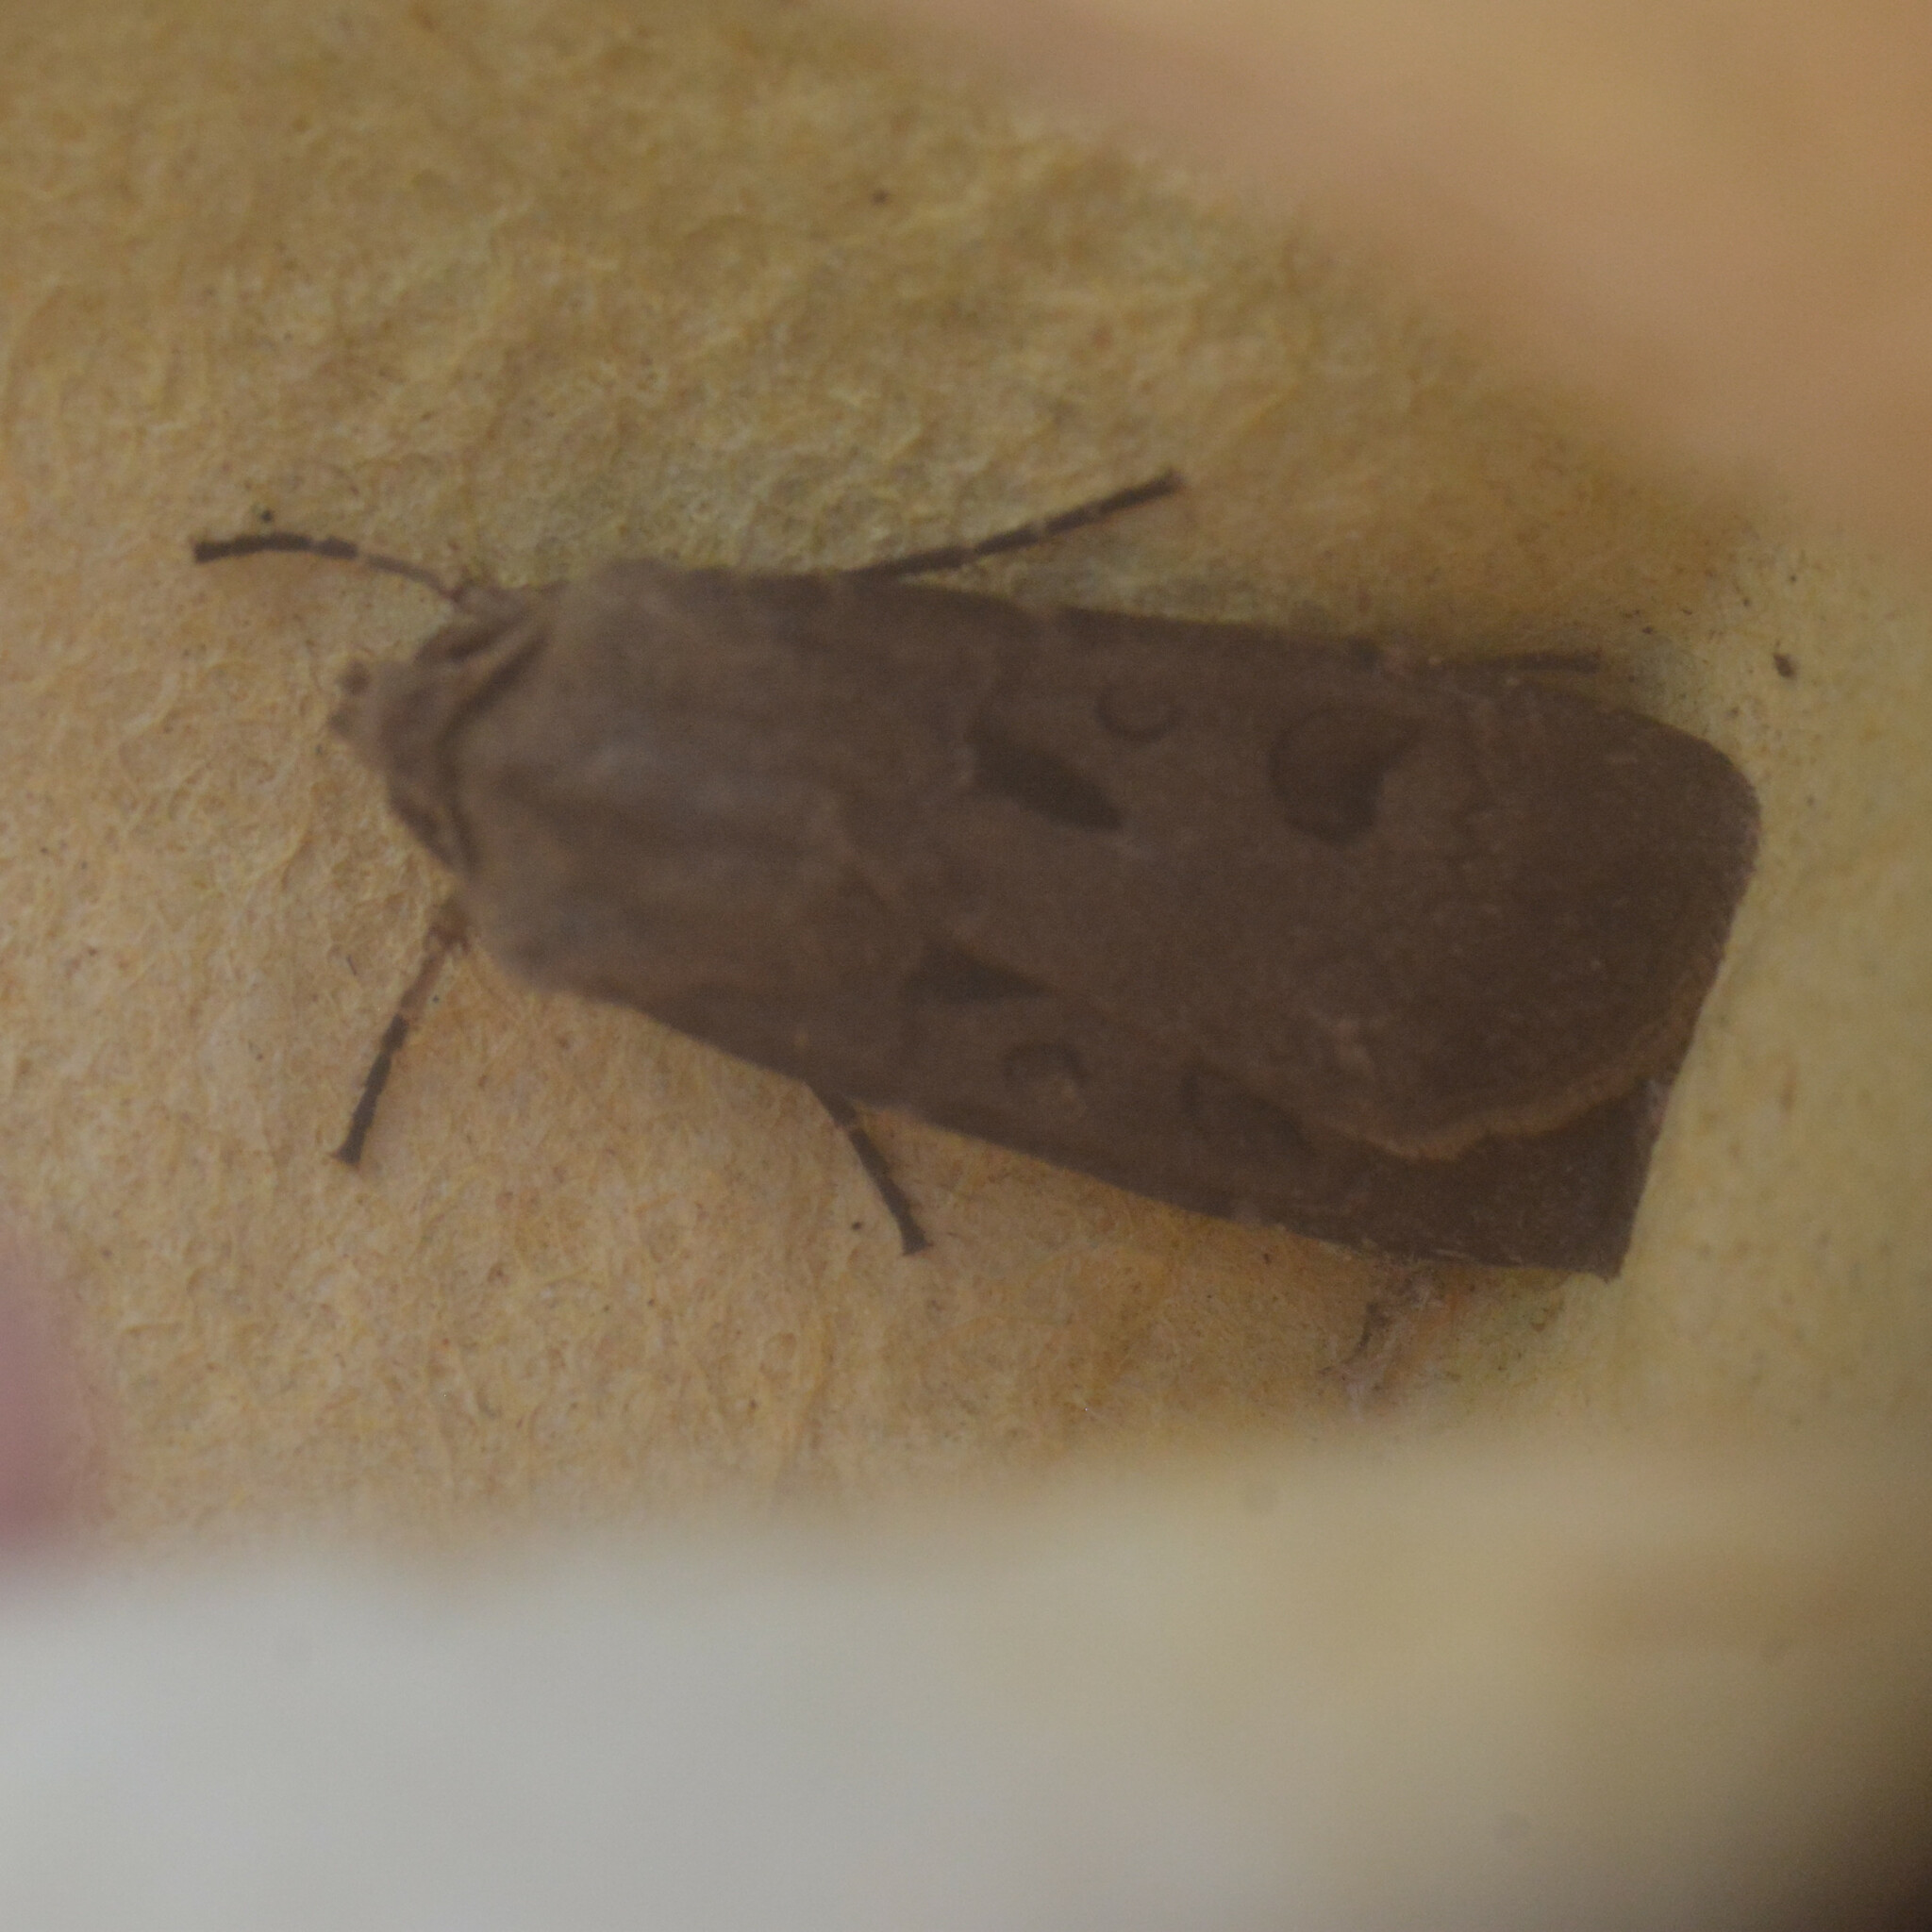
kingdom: Animalia
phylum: Arthropoda
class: Insecta
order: Lepidoptera
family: Noctuidae
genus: Agrotis
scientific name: Agrotis exclamationis
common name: Heart and dart
